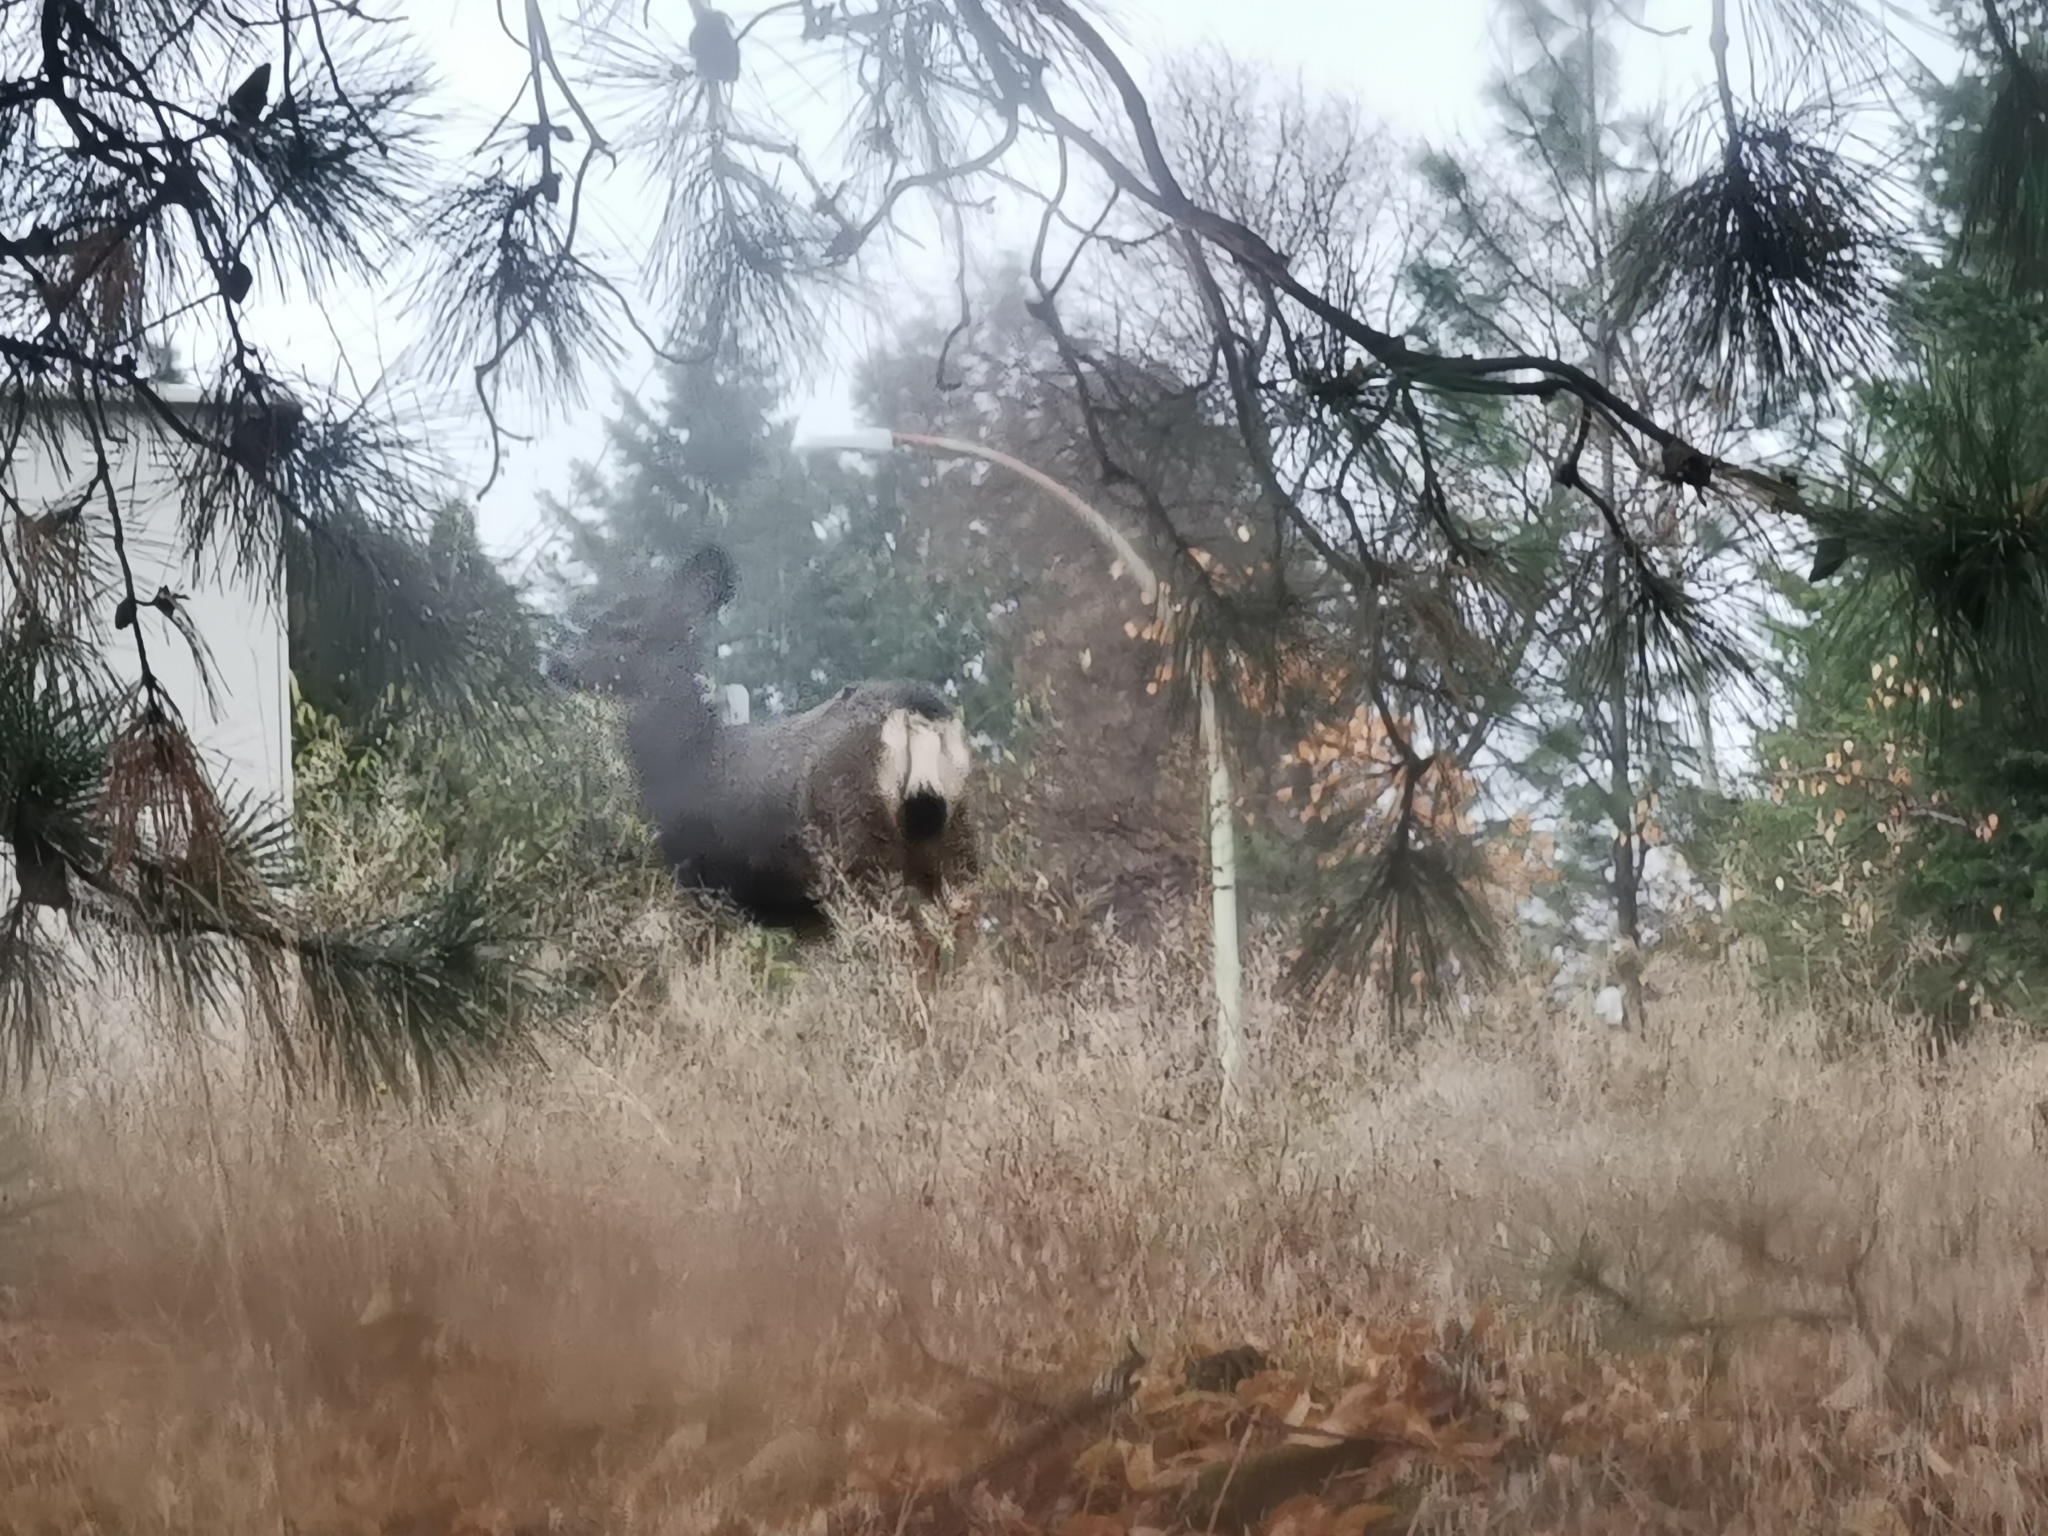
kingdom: Animalia
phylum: Chordata
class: Mammalia
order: Artiodactyla
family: Cervidae
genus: Odocoileus
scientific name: Odocoileus hemionus
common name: Mule deer
